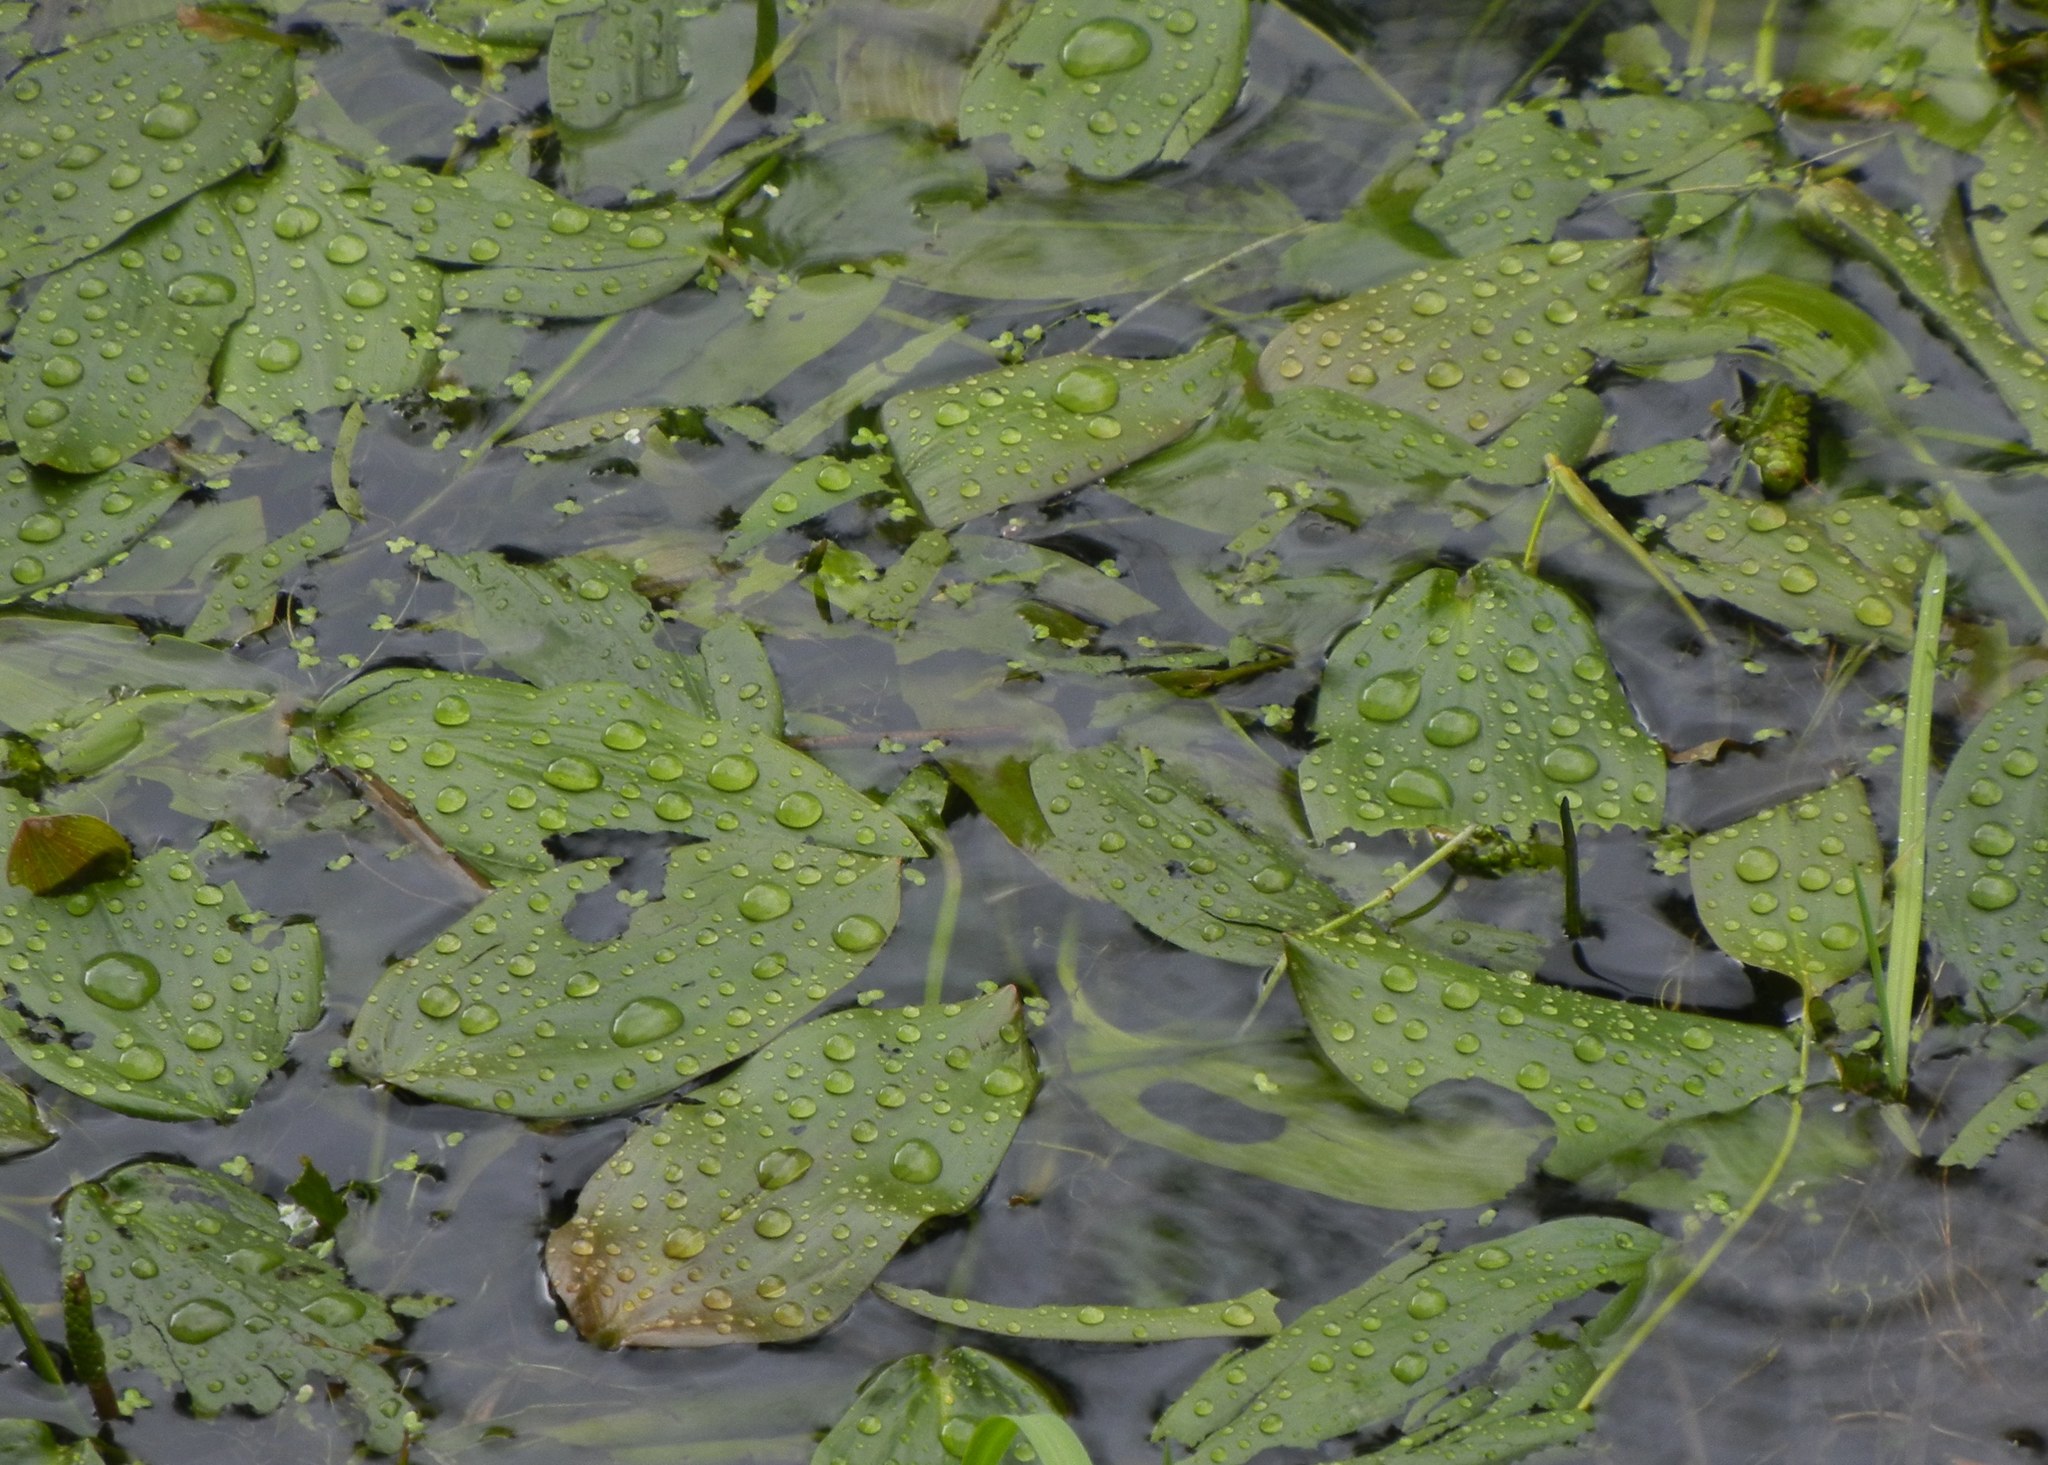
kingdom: Plantae
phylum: Tracheophyta
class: Liliopsida
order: Alismatales
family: Potamogetonaceae
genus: Potamogeton
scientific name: Potamogeton natans
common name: Broad-leaved pondweed
